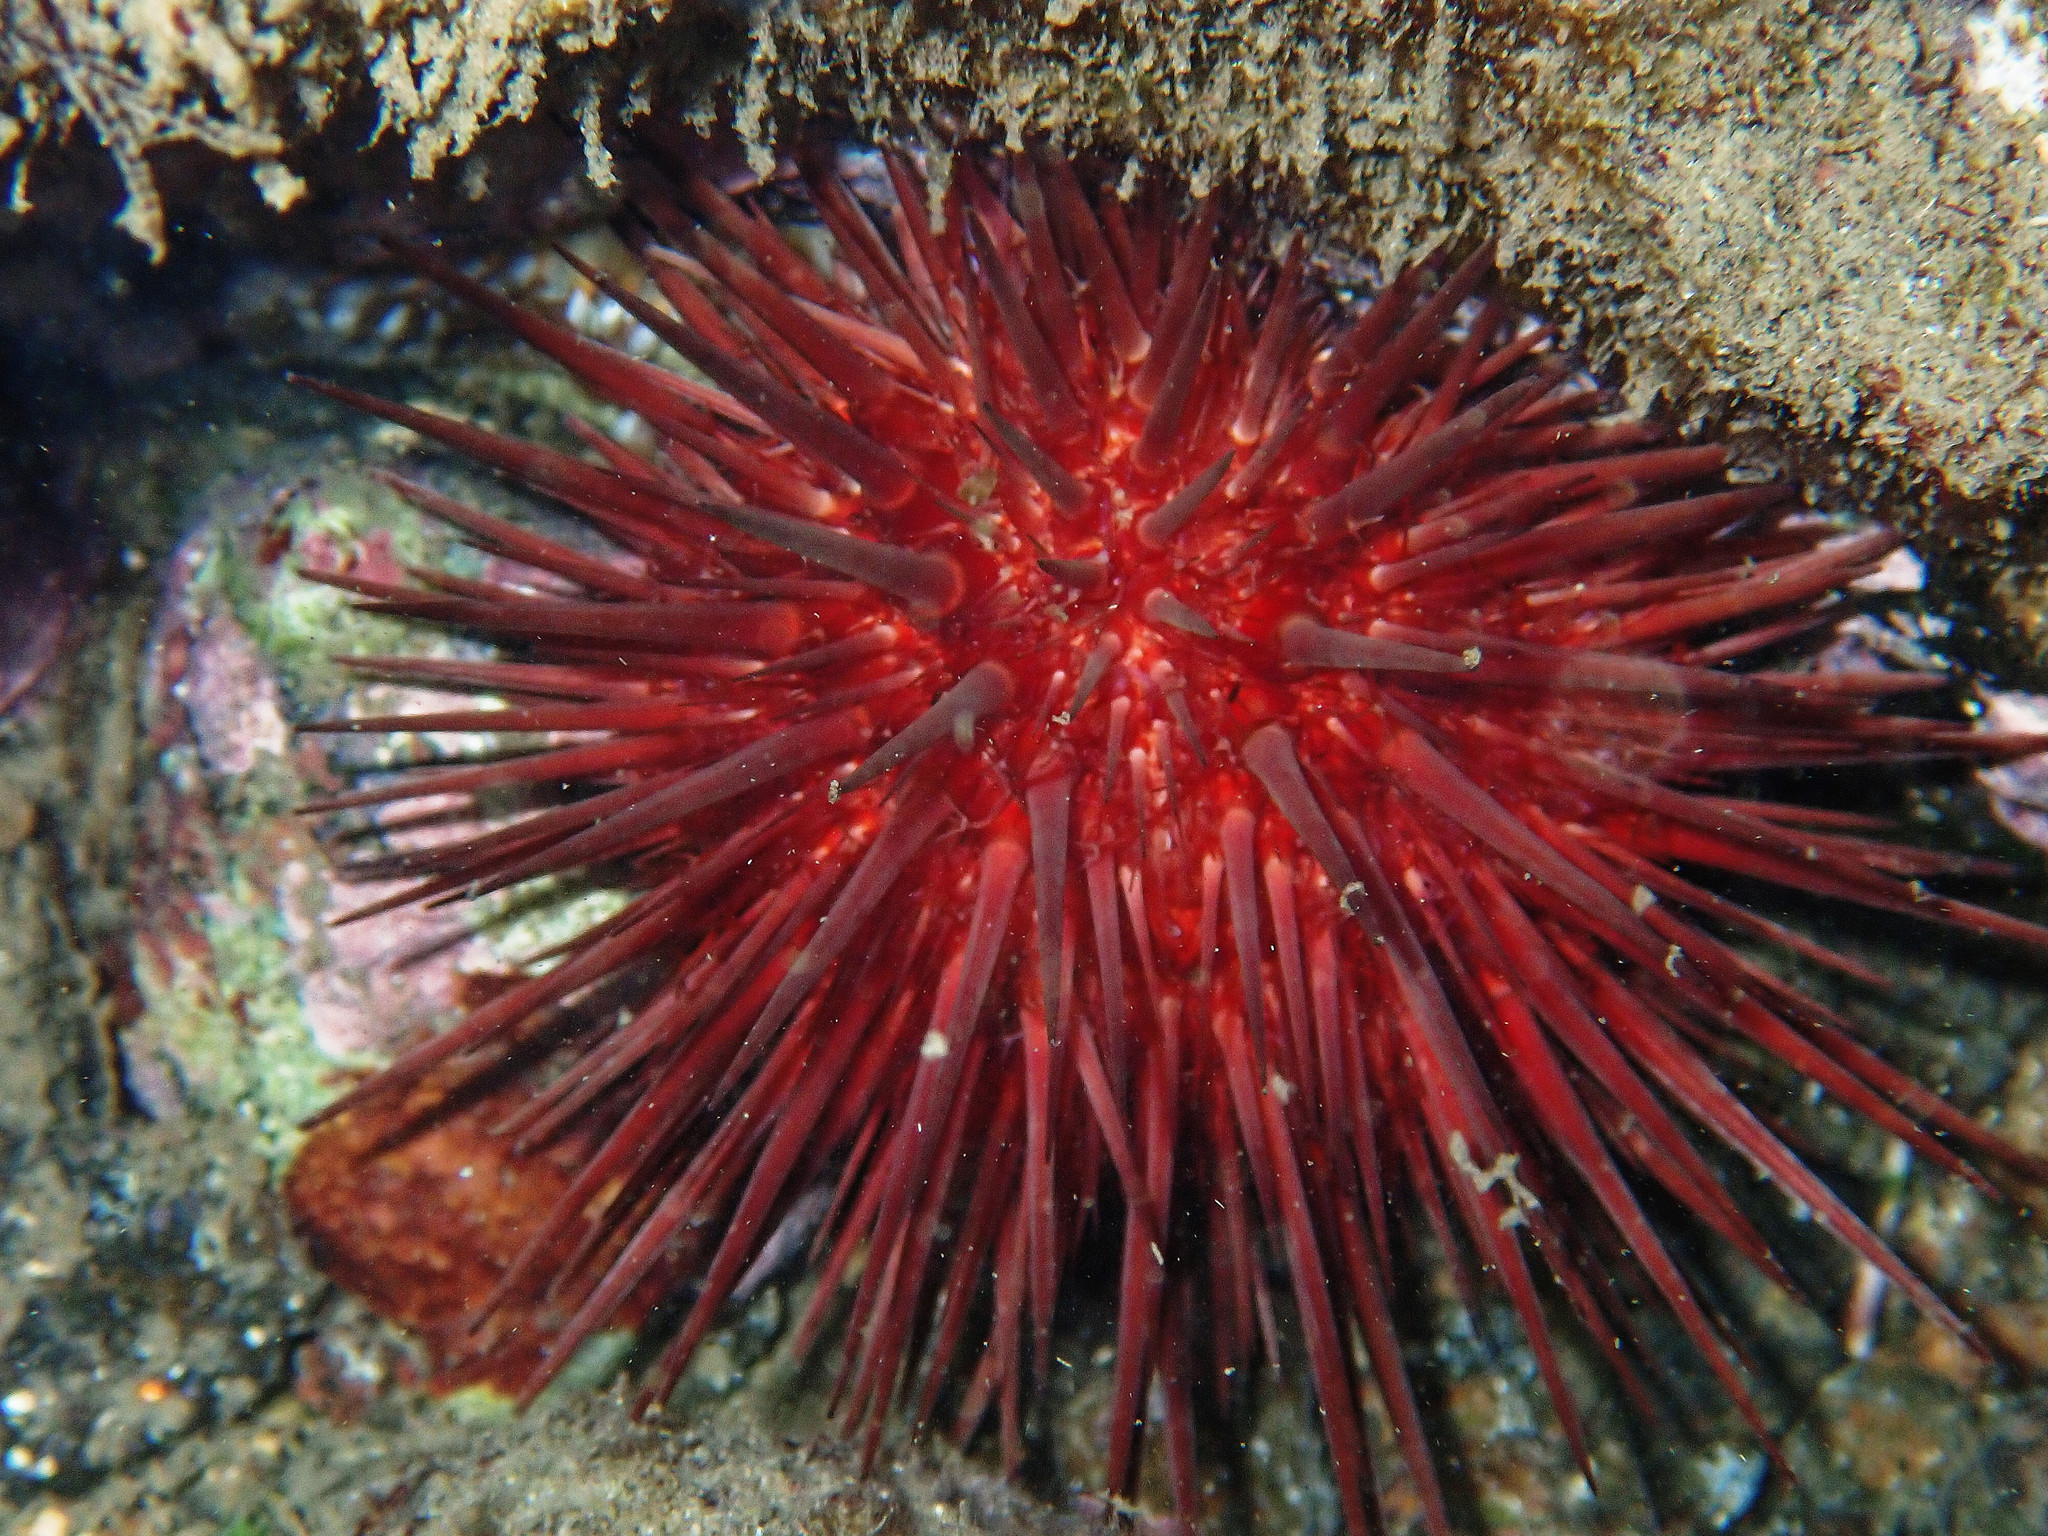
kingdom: Animalia
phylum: Echinodermata
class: Echinoidea
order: Camarodonta
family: Echinometridae
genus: Echinometra
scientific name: Echinometra lucunter
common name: Rock urchin
